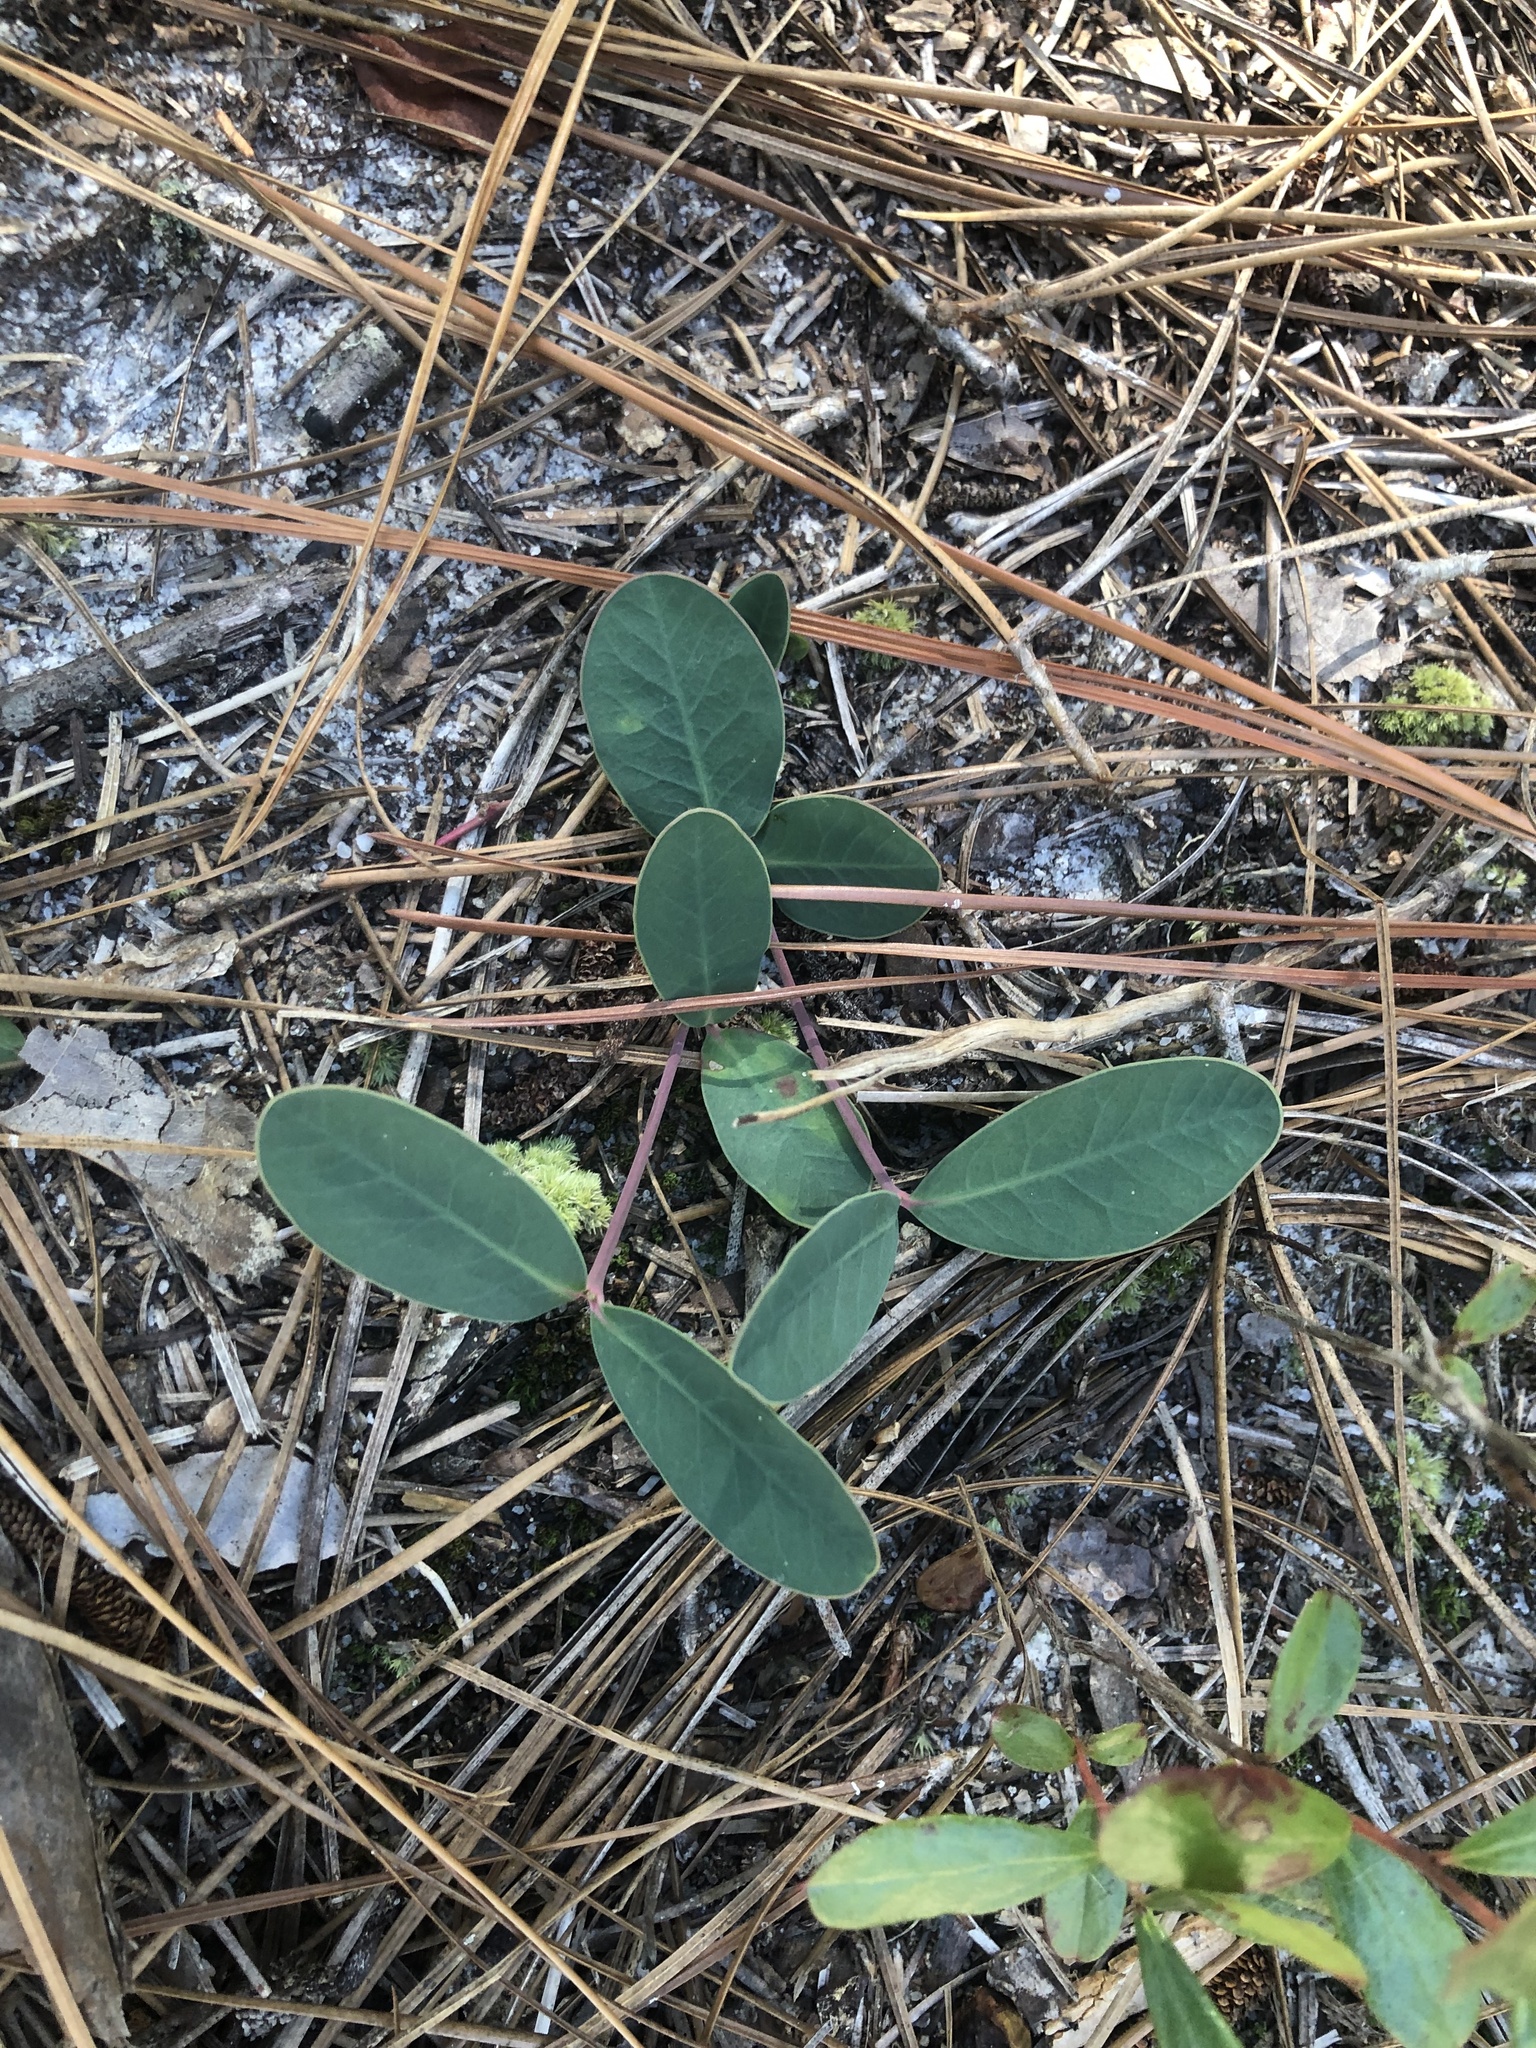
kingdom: Plantae
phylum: Tracheophyta
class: Magnoliopsida
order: Malpighiales
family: Euphorbiaceae
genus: Euphorbia
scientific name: Euphorbia ipecacuanhae
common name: Carolina ipecac
